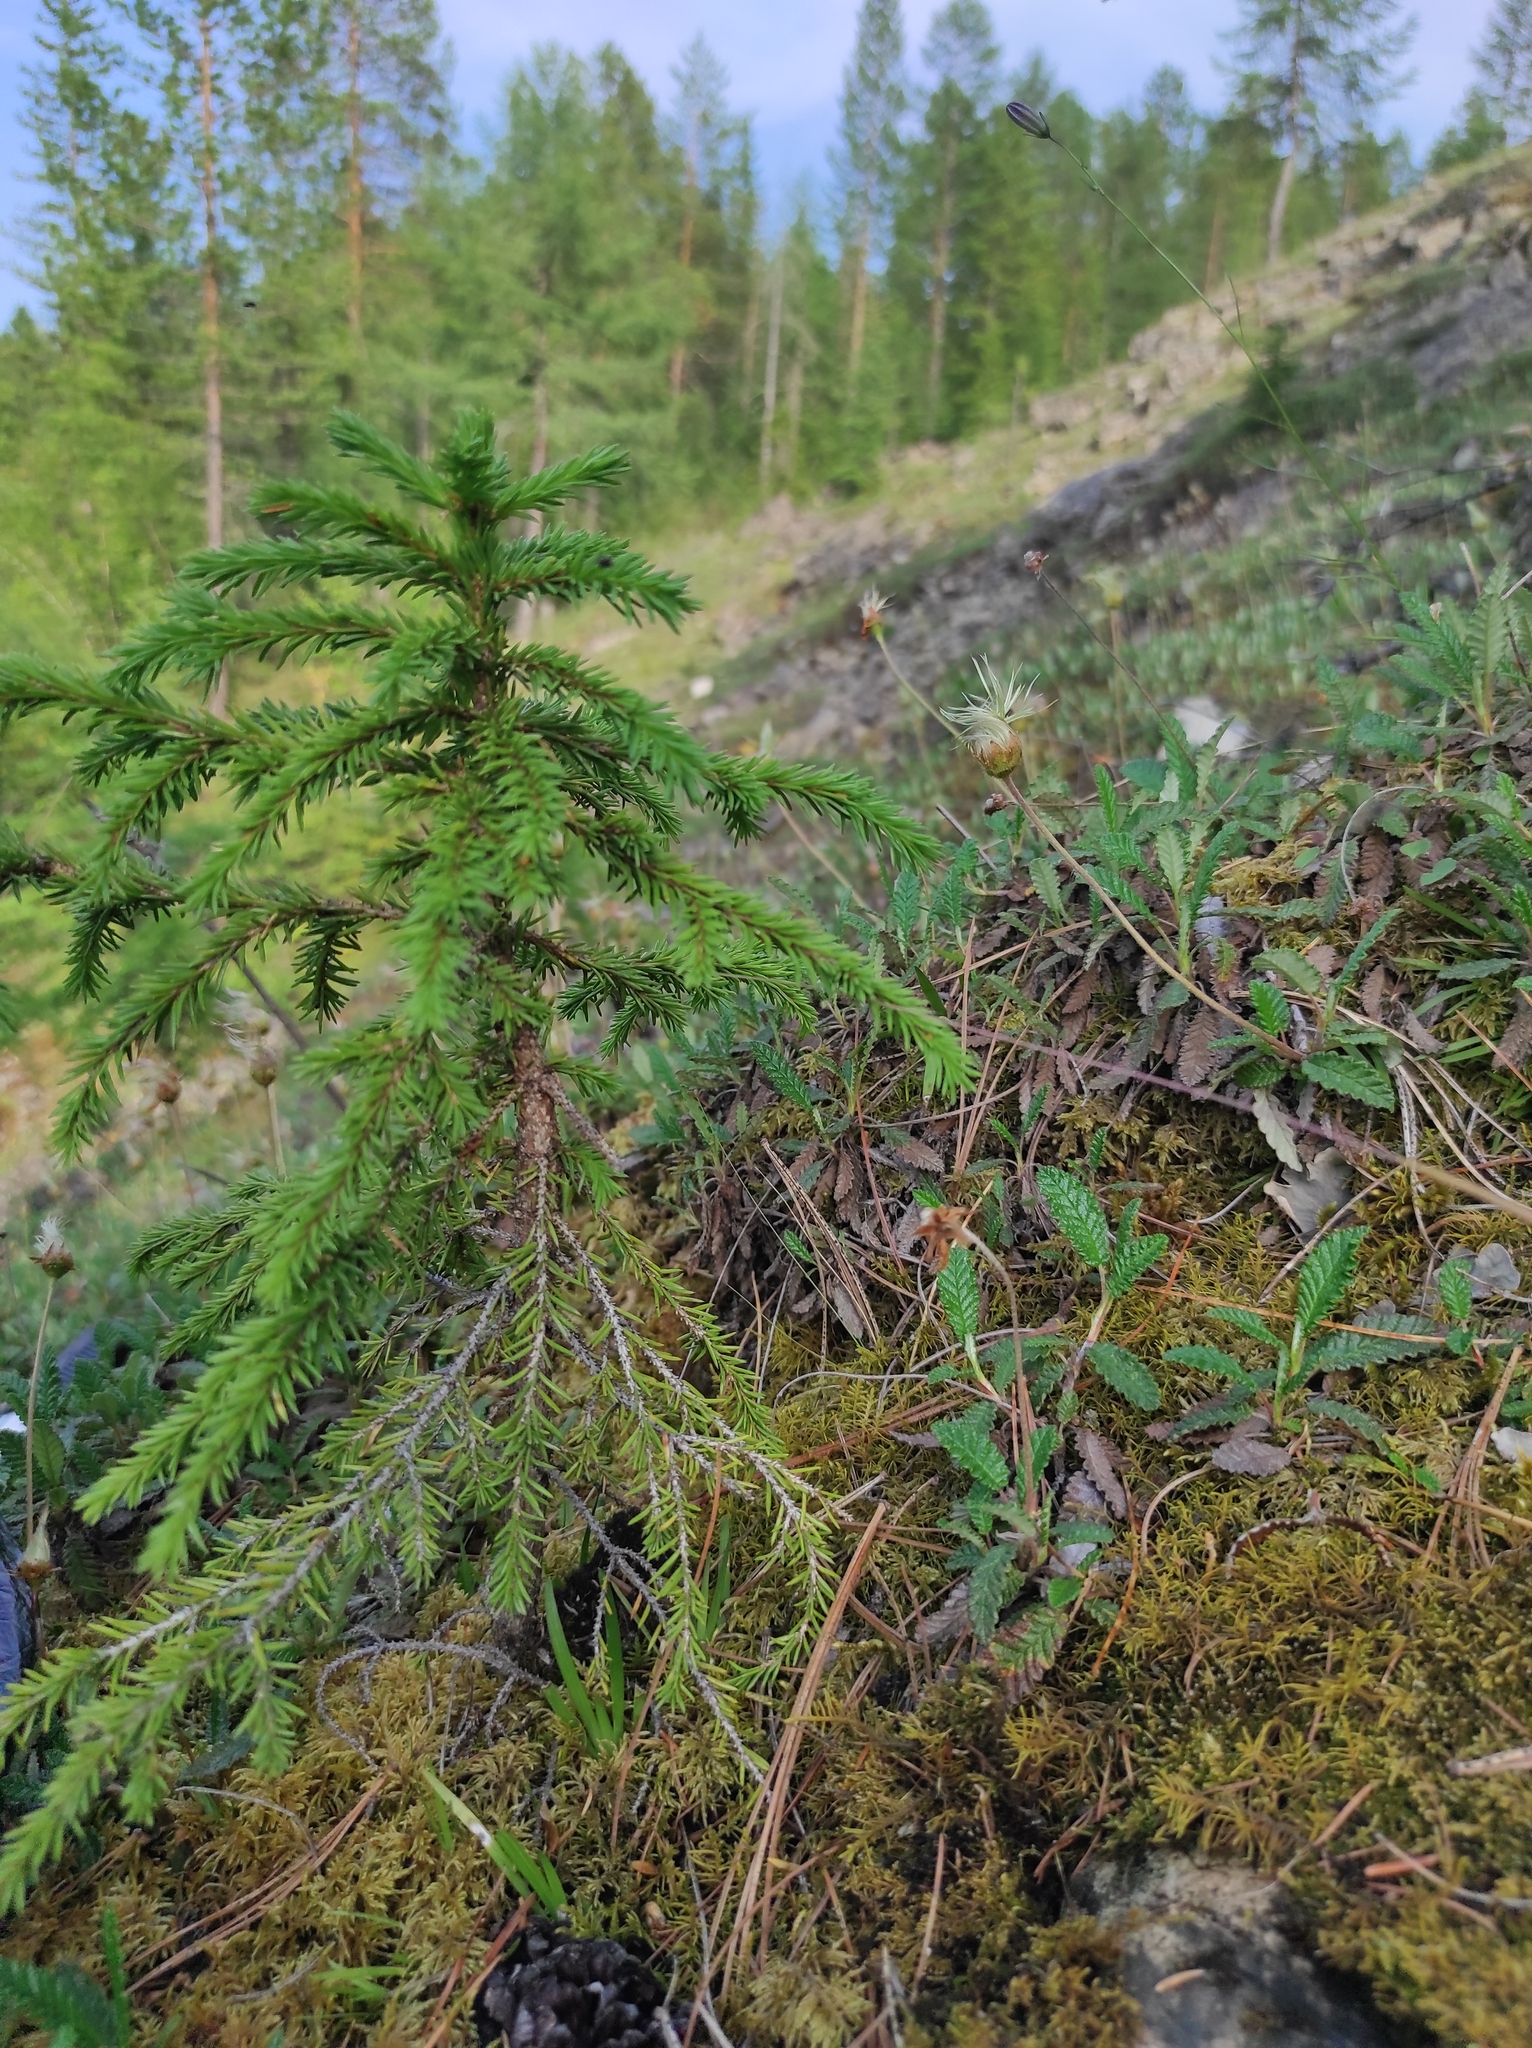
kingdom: Plantae
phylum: Tracheophyta
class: Pinopsida
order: Pinales
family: Pinaceae
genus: Picea
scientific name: Picea obovata
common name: Siberian spruce
